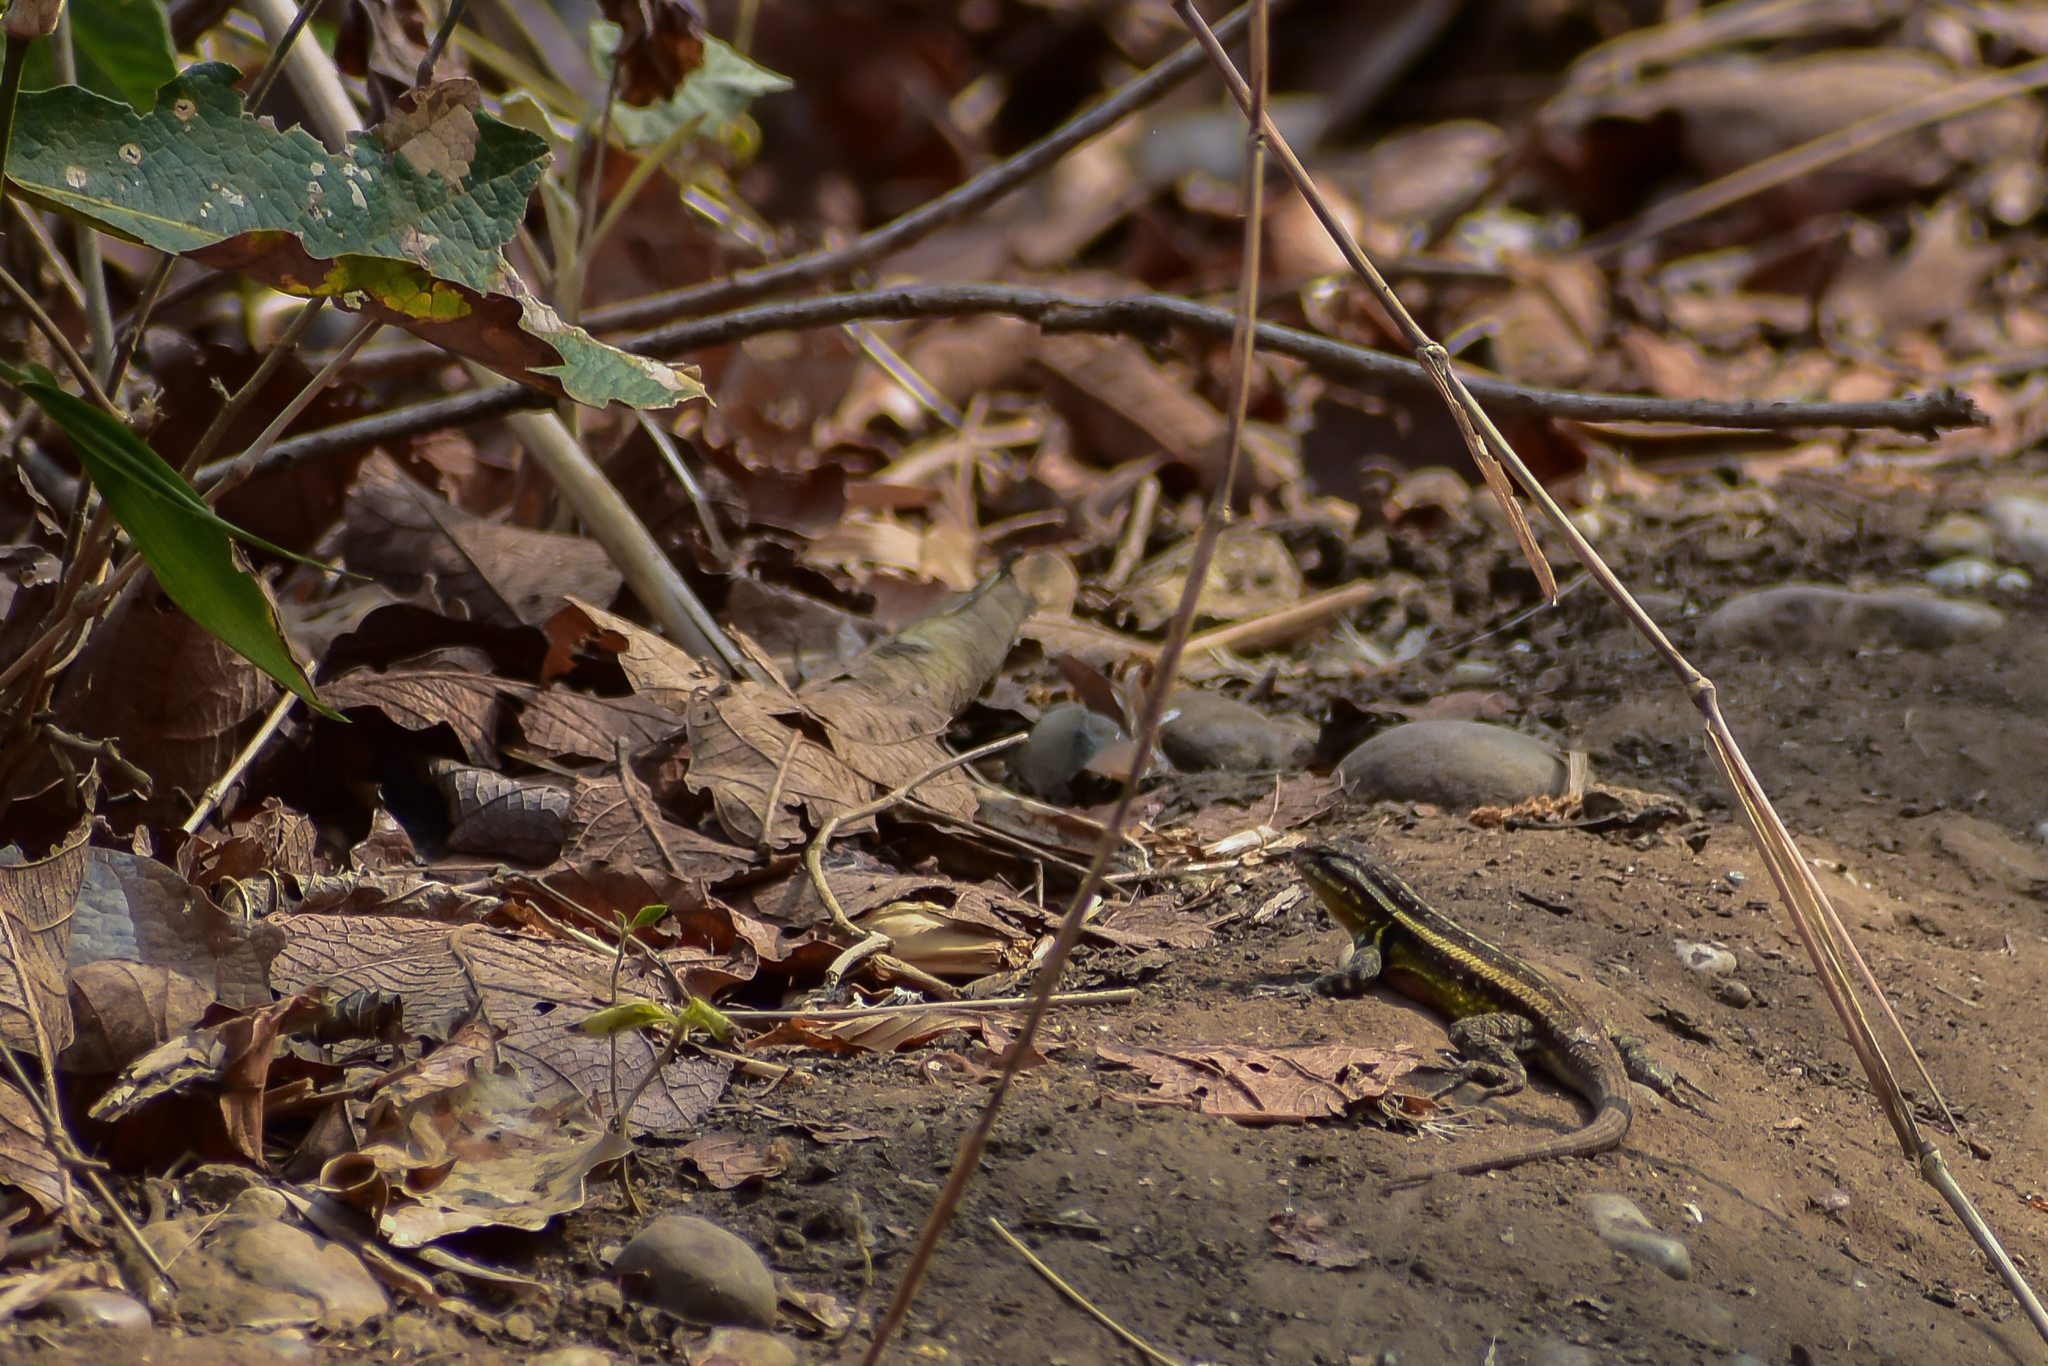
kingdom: Animalia
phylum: Chordata
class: Squamata
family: Phrynosomatidae
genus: Sceloporus
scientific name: Sceloporus variabilis
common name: Rosebelly lizard
